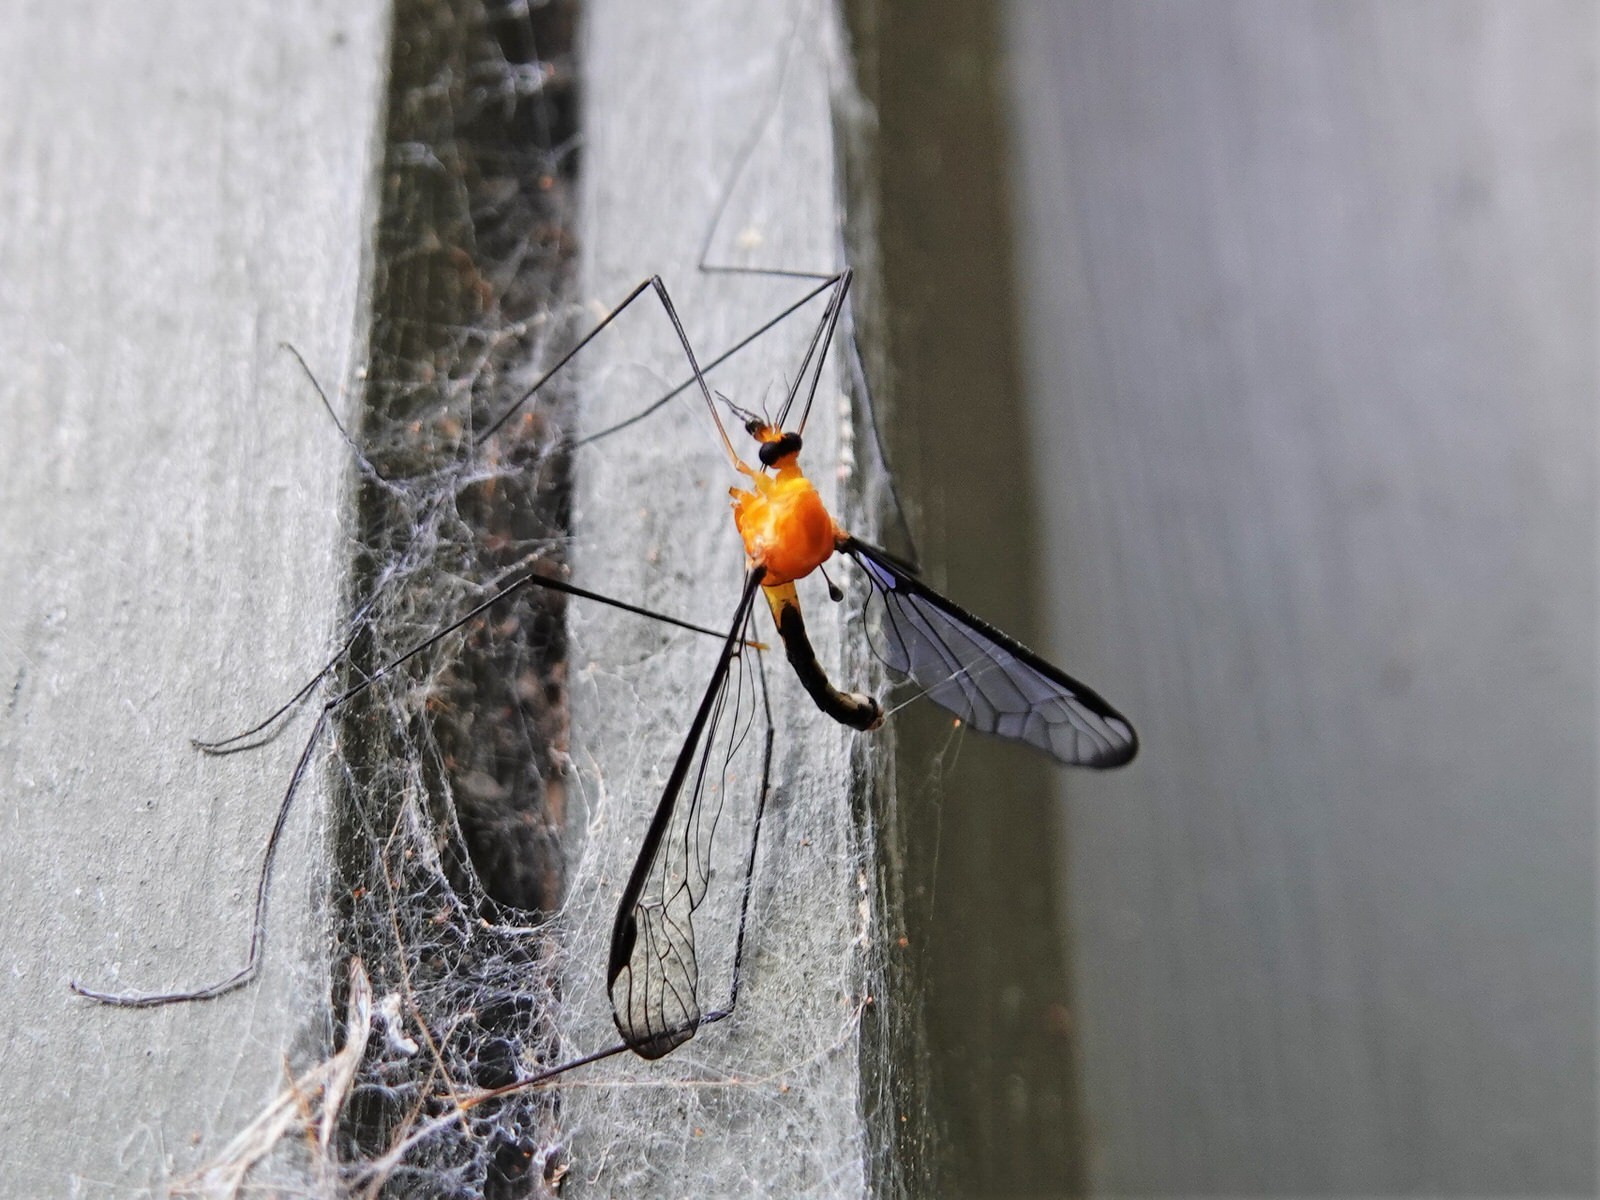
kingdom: Animalia
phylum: Arthropoda
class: Insecta
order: Diptera
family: Tipulidae
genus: Aurotipula
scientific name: Aurotipula
